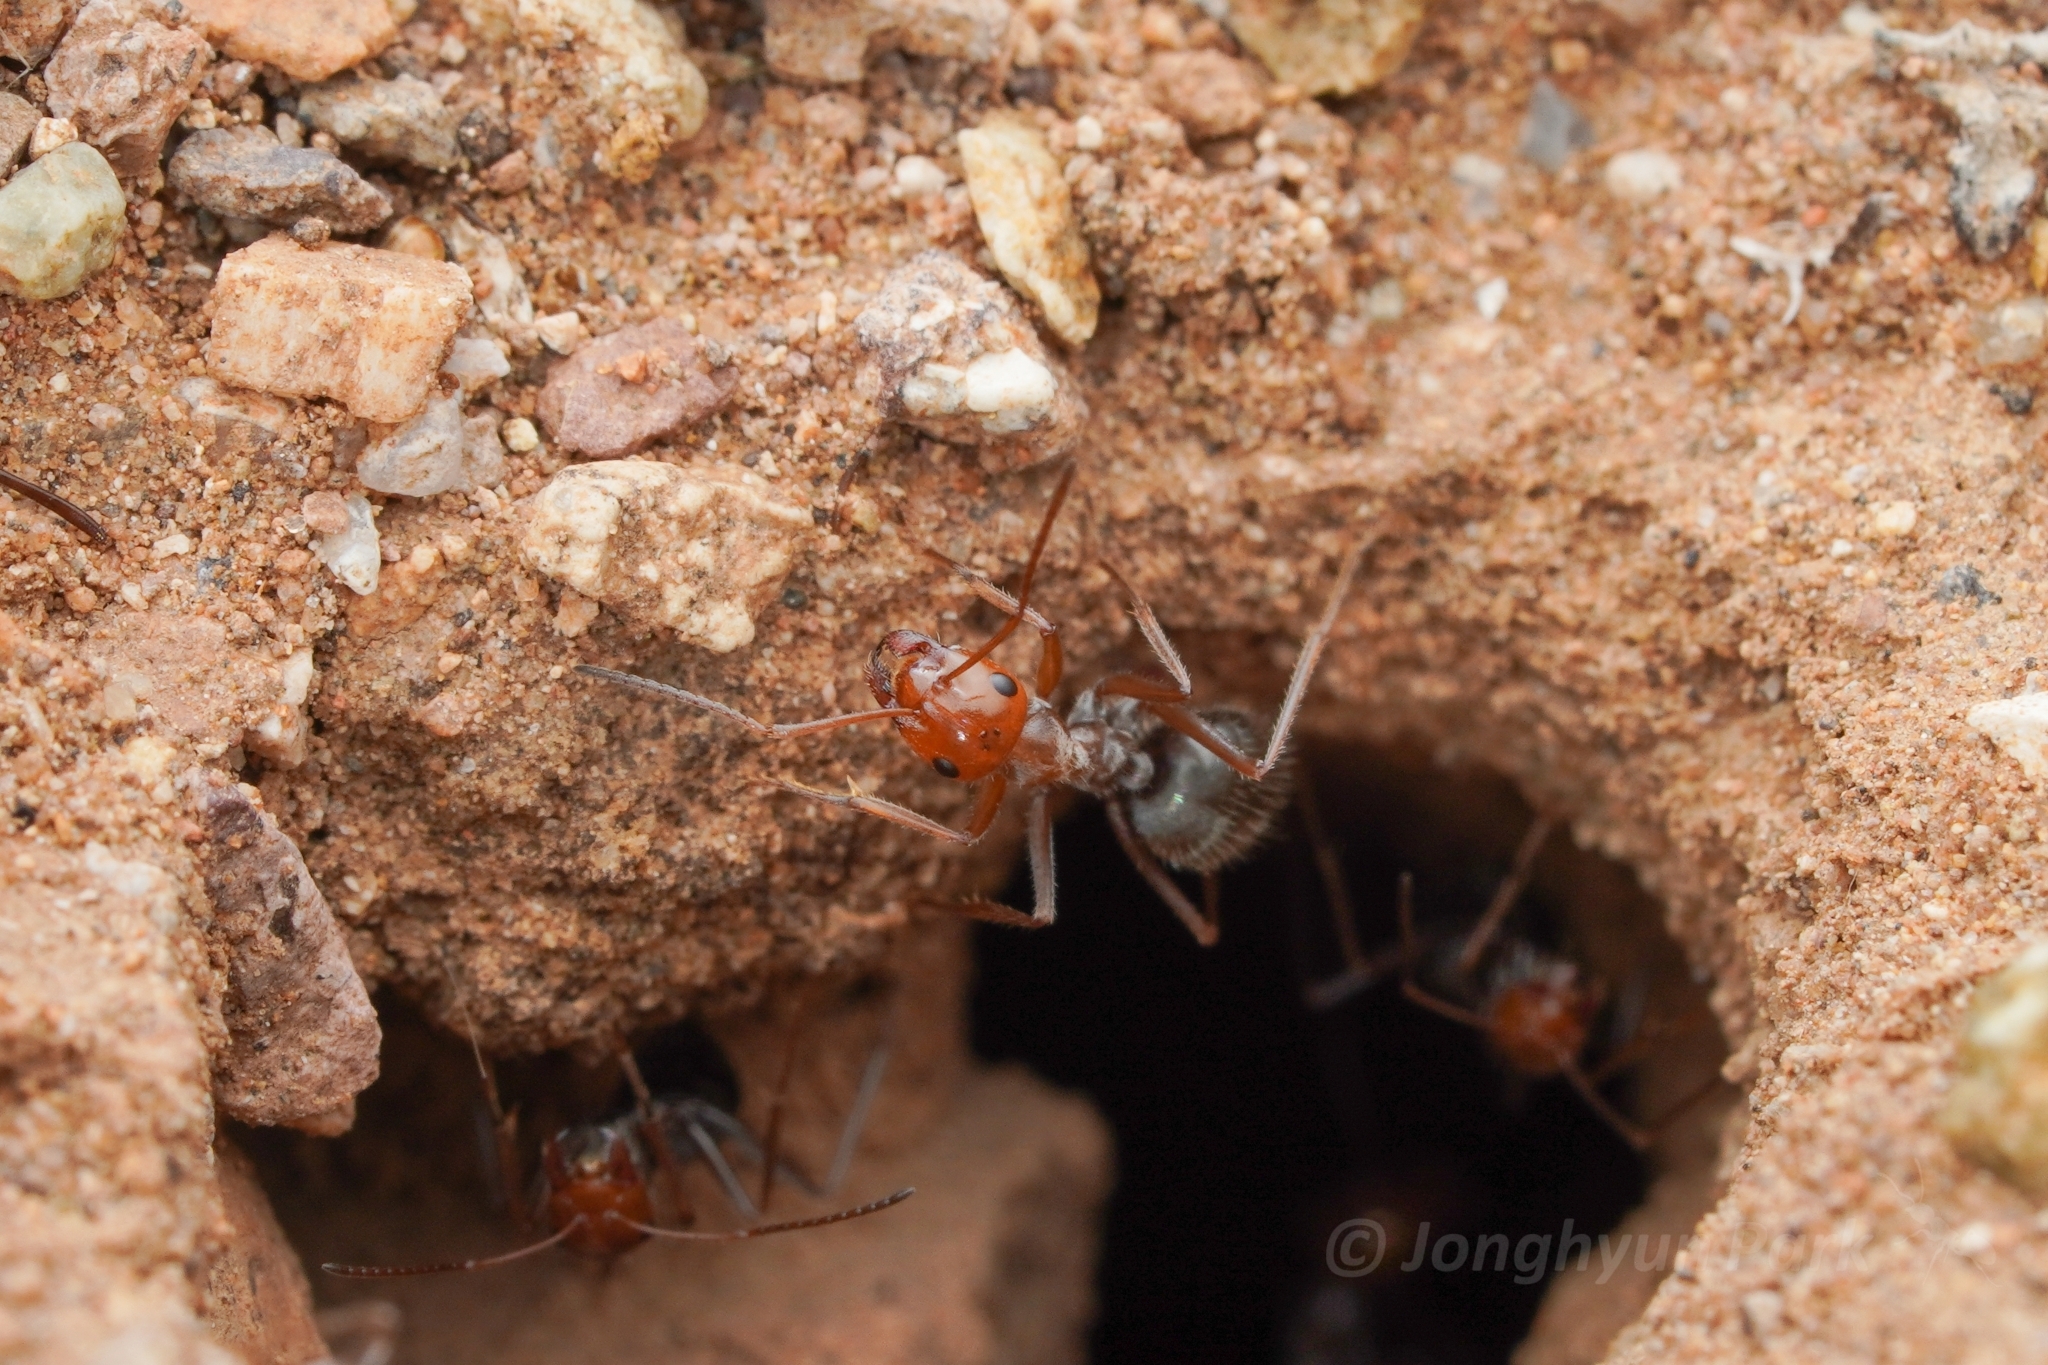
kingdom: Animalia
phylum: Arthropoda
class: Insecta
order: Hymenoptera
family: Formicidae
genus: Myrmecocystus
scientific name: Myrmecocystus mimicus
